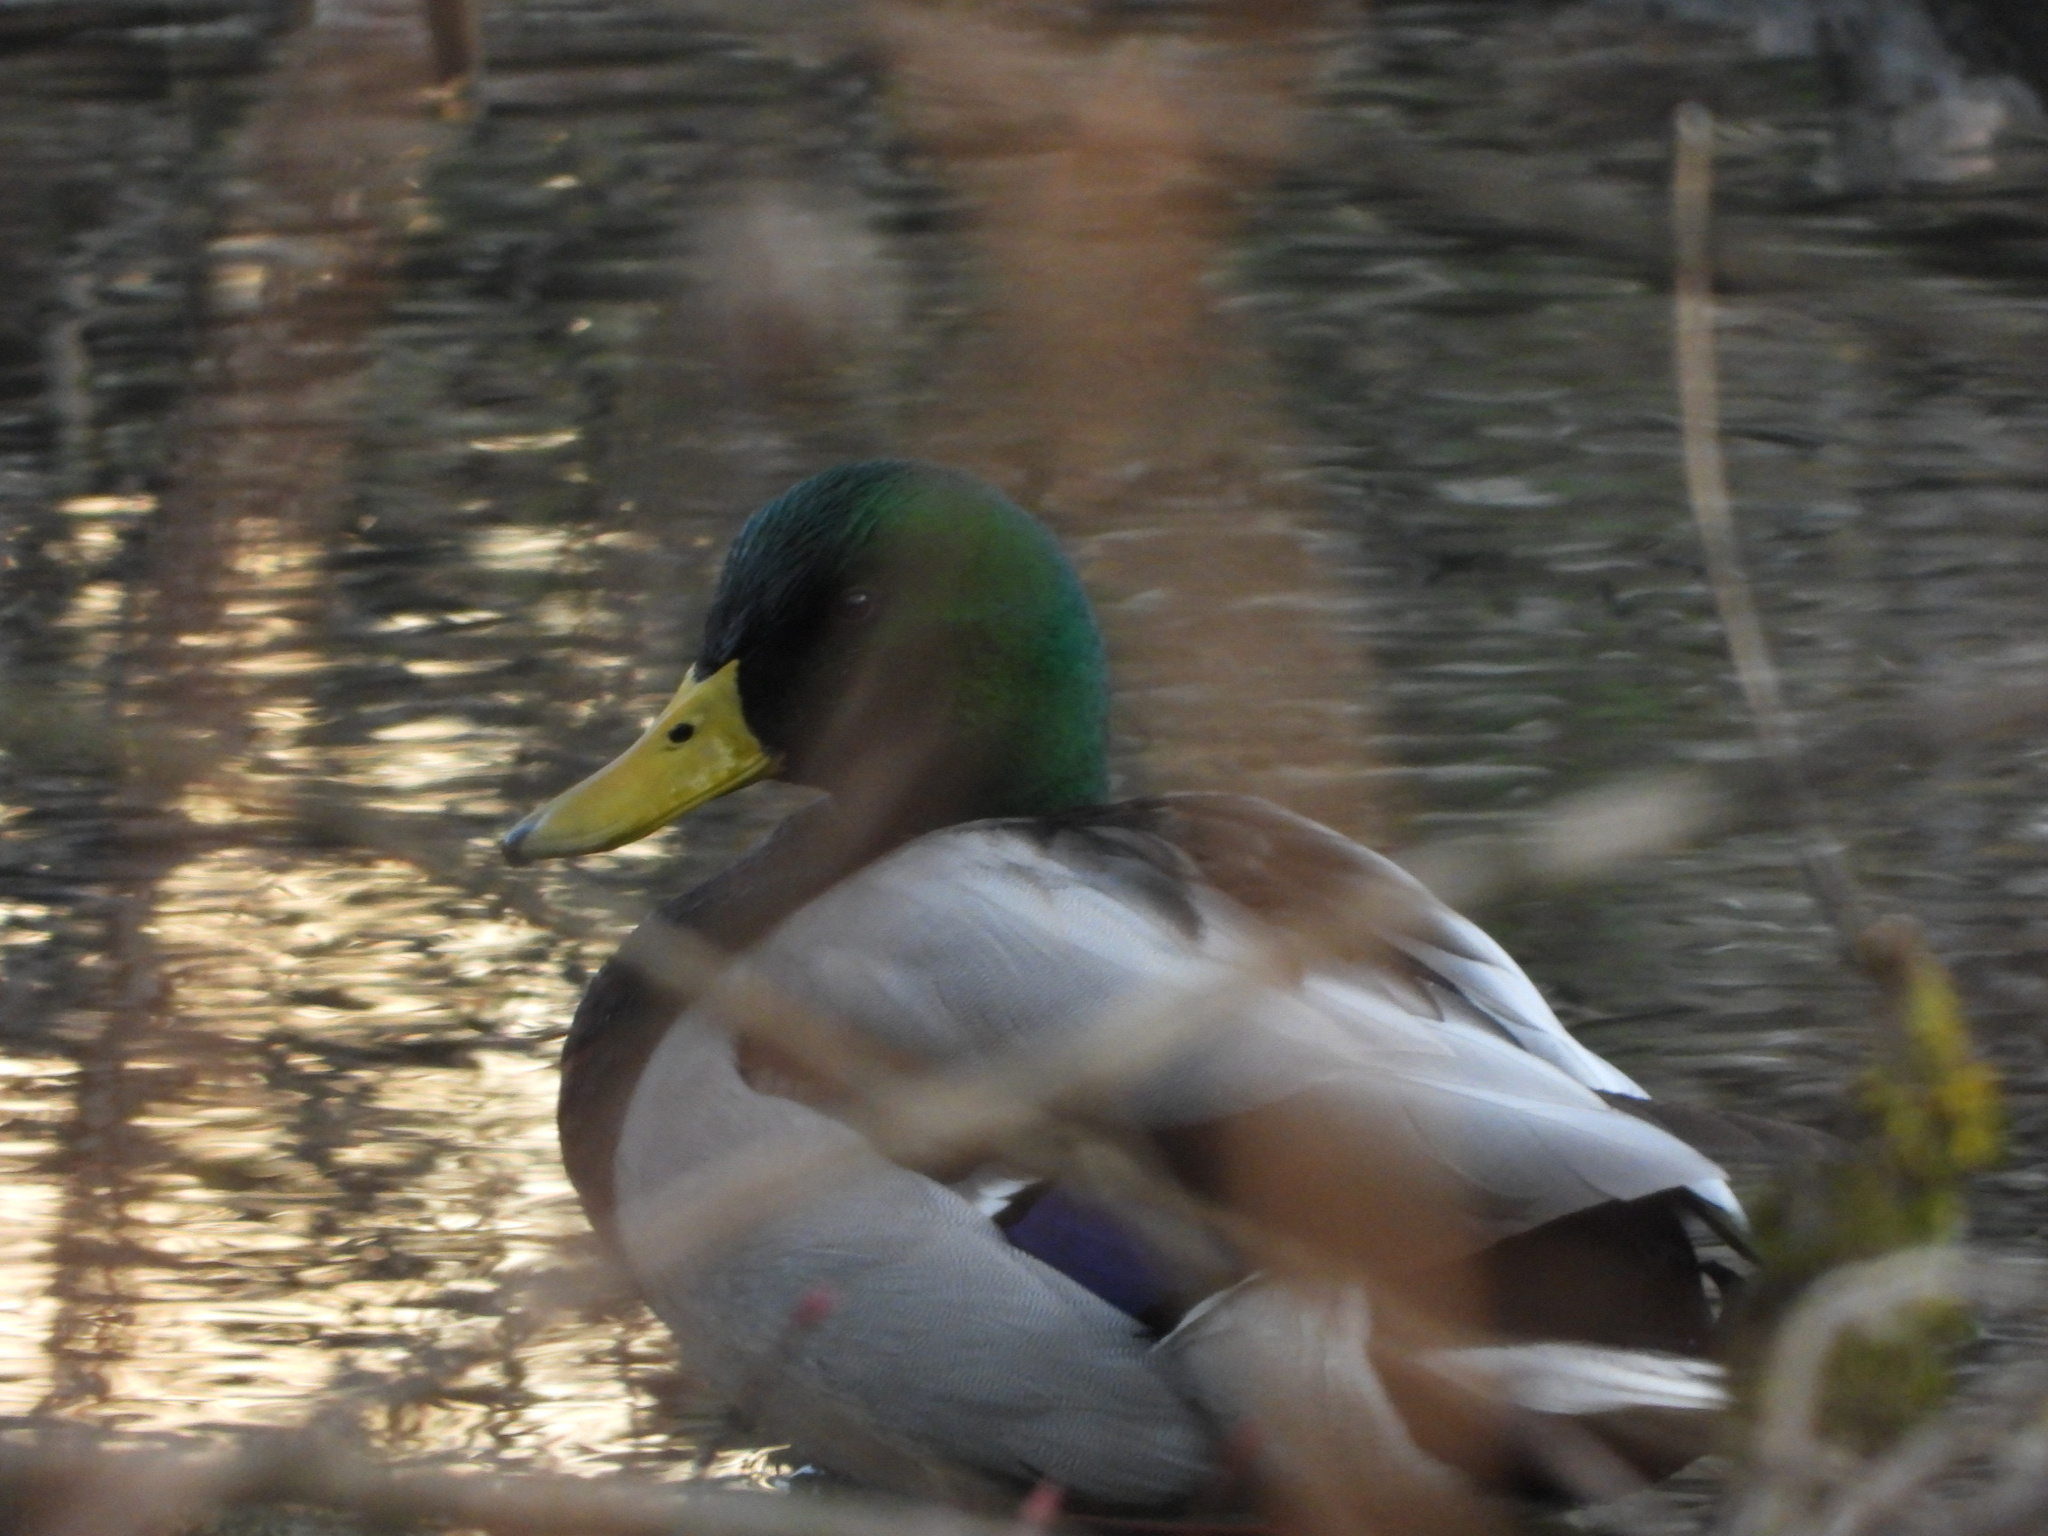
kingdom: Animalia
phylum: Chordata
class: Aves
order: Anseriformes
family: Anatidae
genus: Anas
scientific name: Anas platyrhynchos
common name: Mallard
